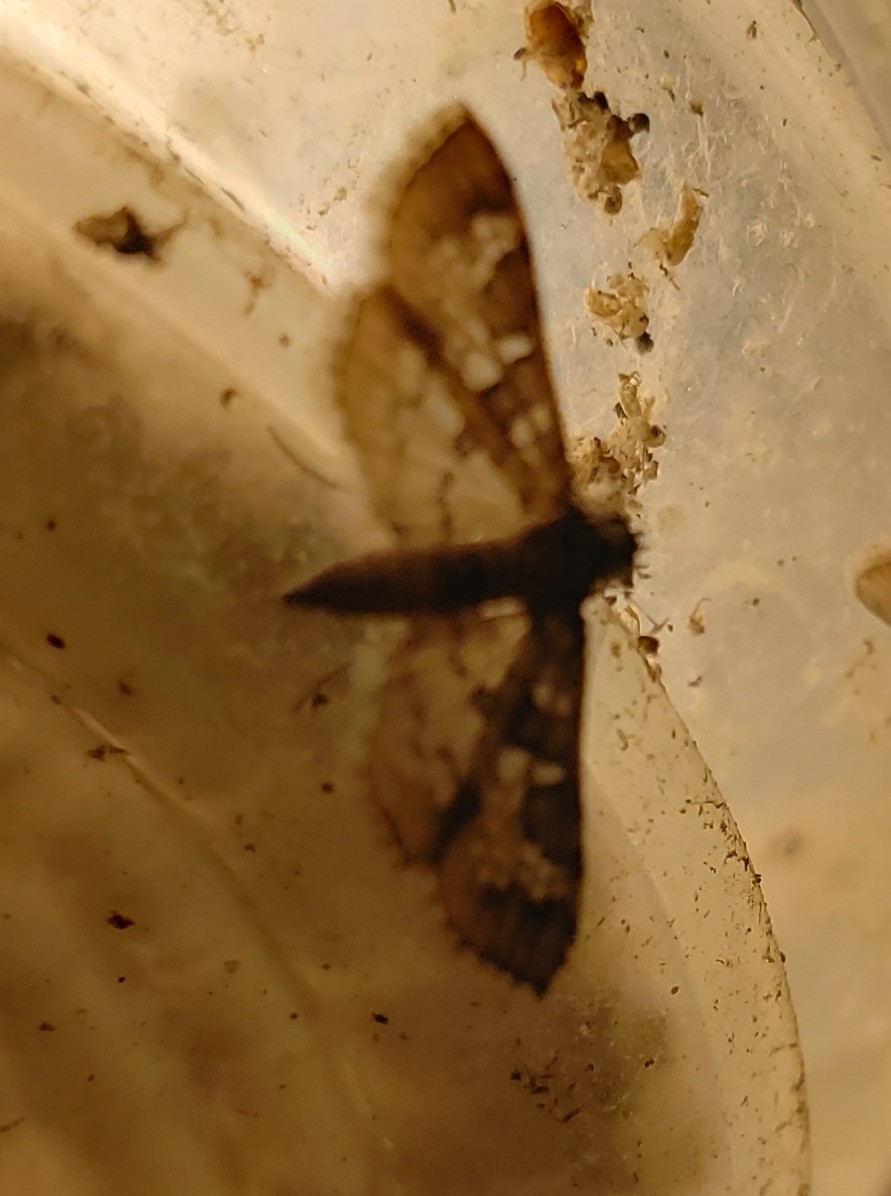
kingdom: Animalia
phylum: Arthropoda
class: Insecta
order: Lepidoptera
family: Crambidae
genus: Samea
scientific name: Samea
